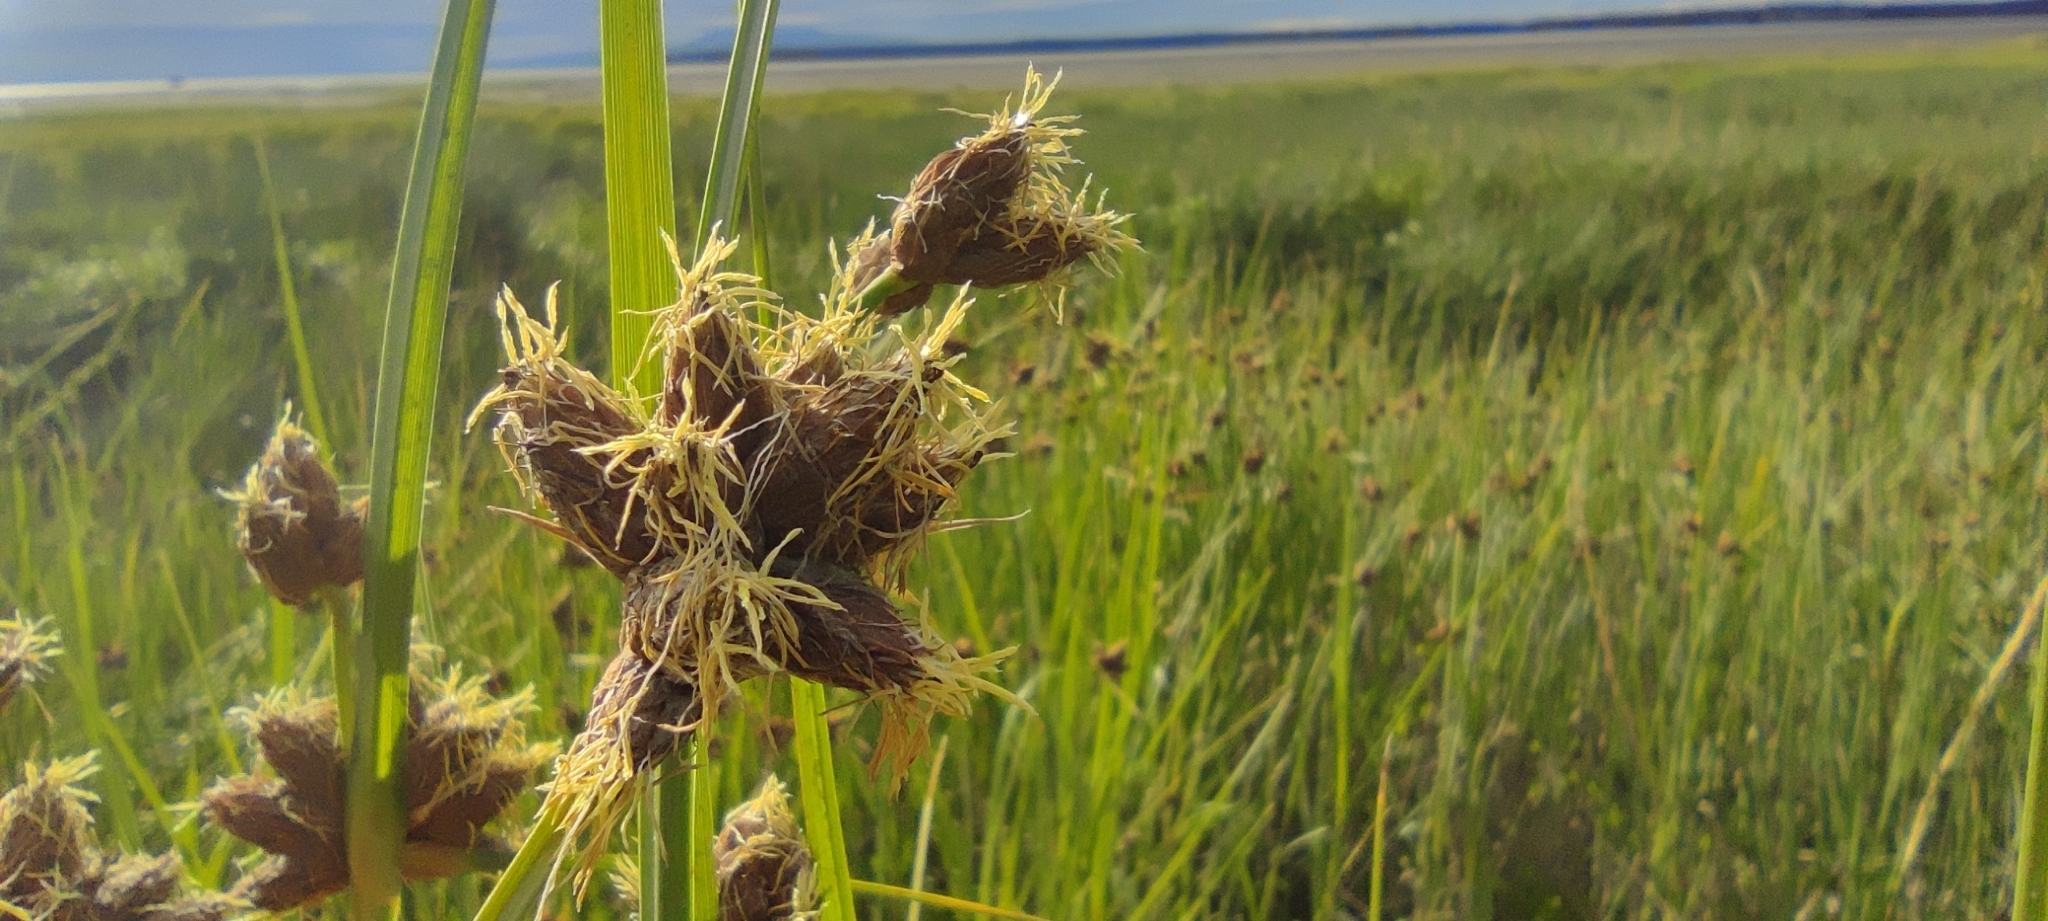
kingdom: Plantae
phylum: Tracheophyta
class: Liliopsida
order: Poales
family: Cyperaceae
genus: Bolboschoenus
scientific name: Bolboschoenus maritimus
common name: Sea club-rush
